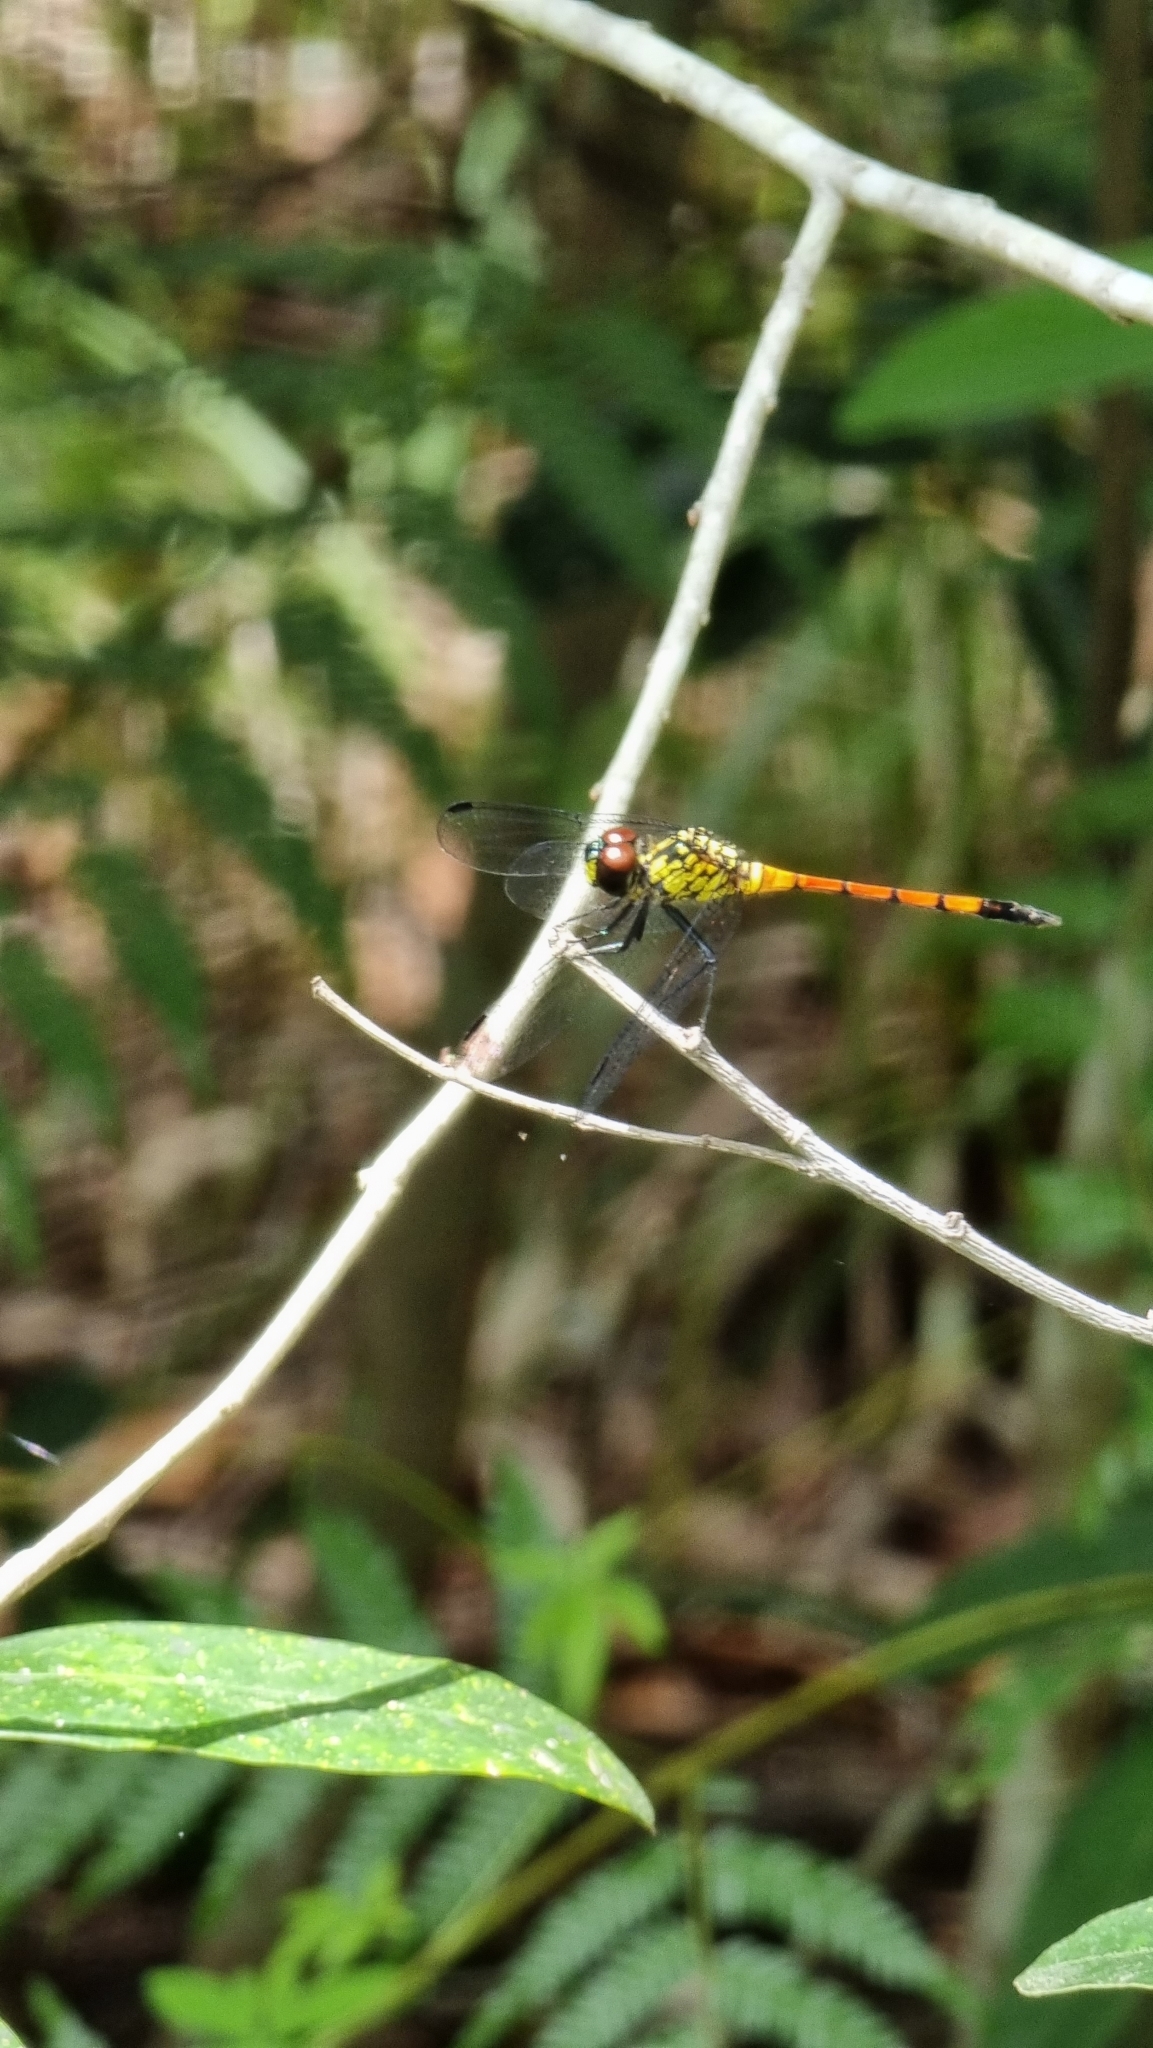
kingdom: Animalia
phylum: Arthropoda
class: Insecta
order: Odonata
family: Libellulidae
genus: Agrionoptera
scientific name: Agrionoptera insignis
